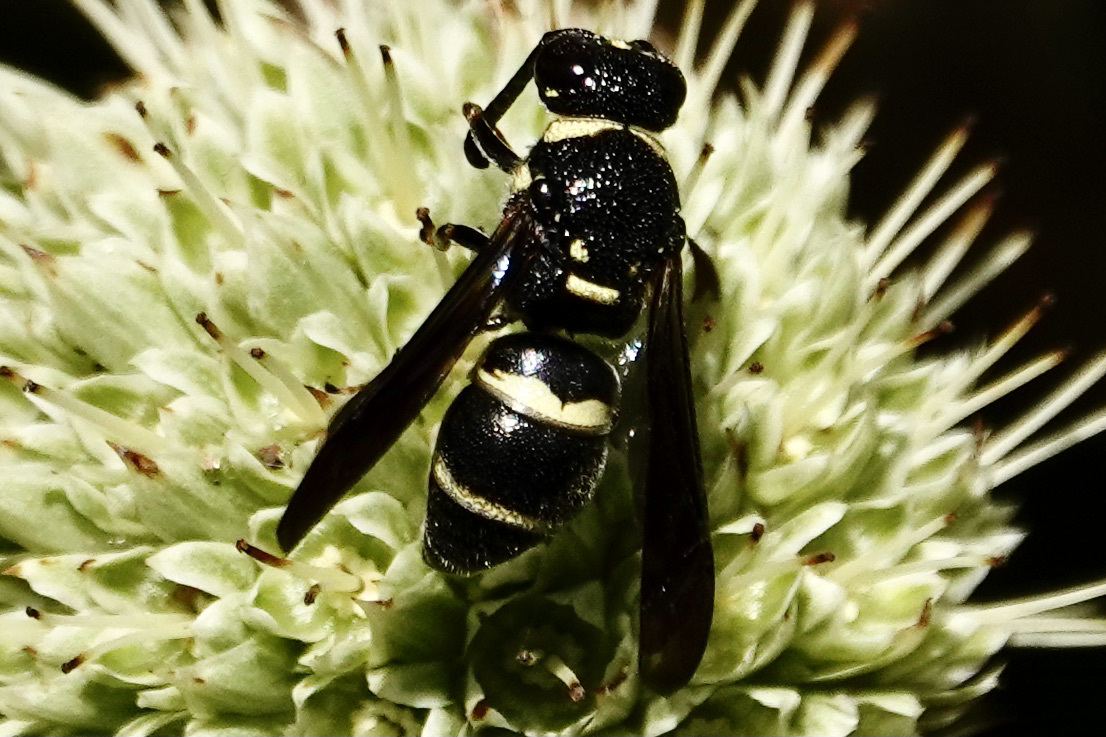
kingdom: Animalia
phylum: Arthropoda
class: Insecta
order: Hymenoptera
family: Eumenidae
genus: Euodynerus
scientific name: Euodynerus megaera
